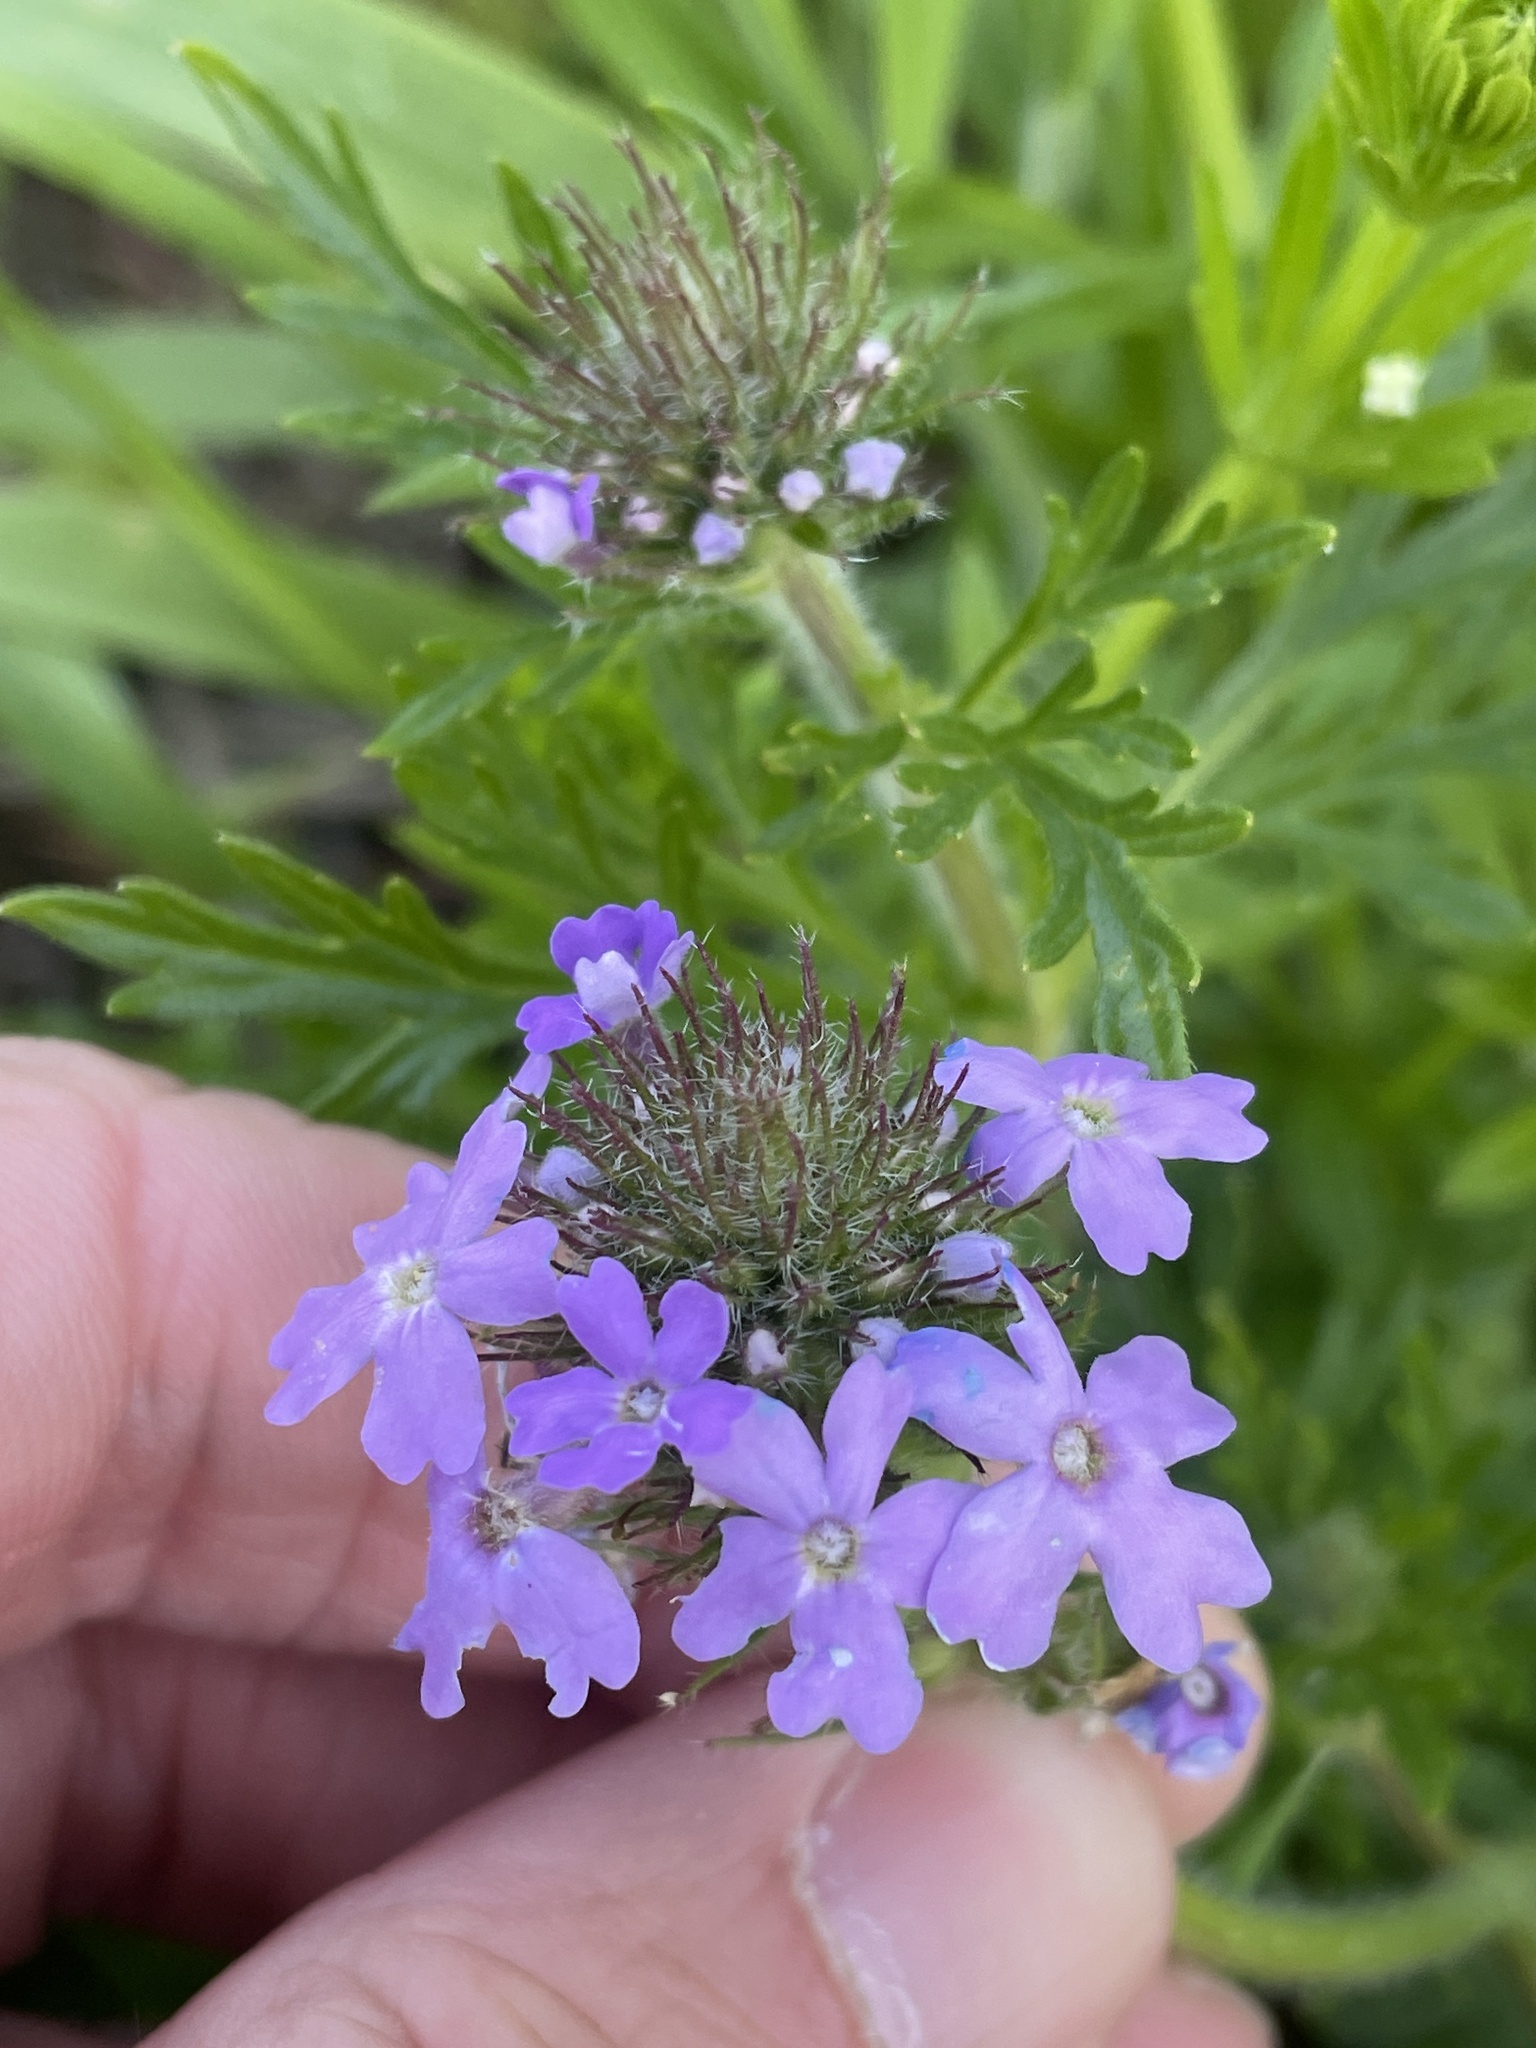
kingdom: Plantae
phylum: Tracheophyta
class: Magnoliopsida
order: Lamiales
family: Verbenaceae
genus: Verbena
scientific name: Verbena bipinnatifida
